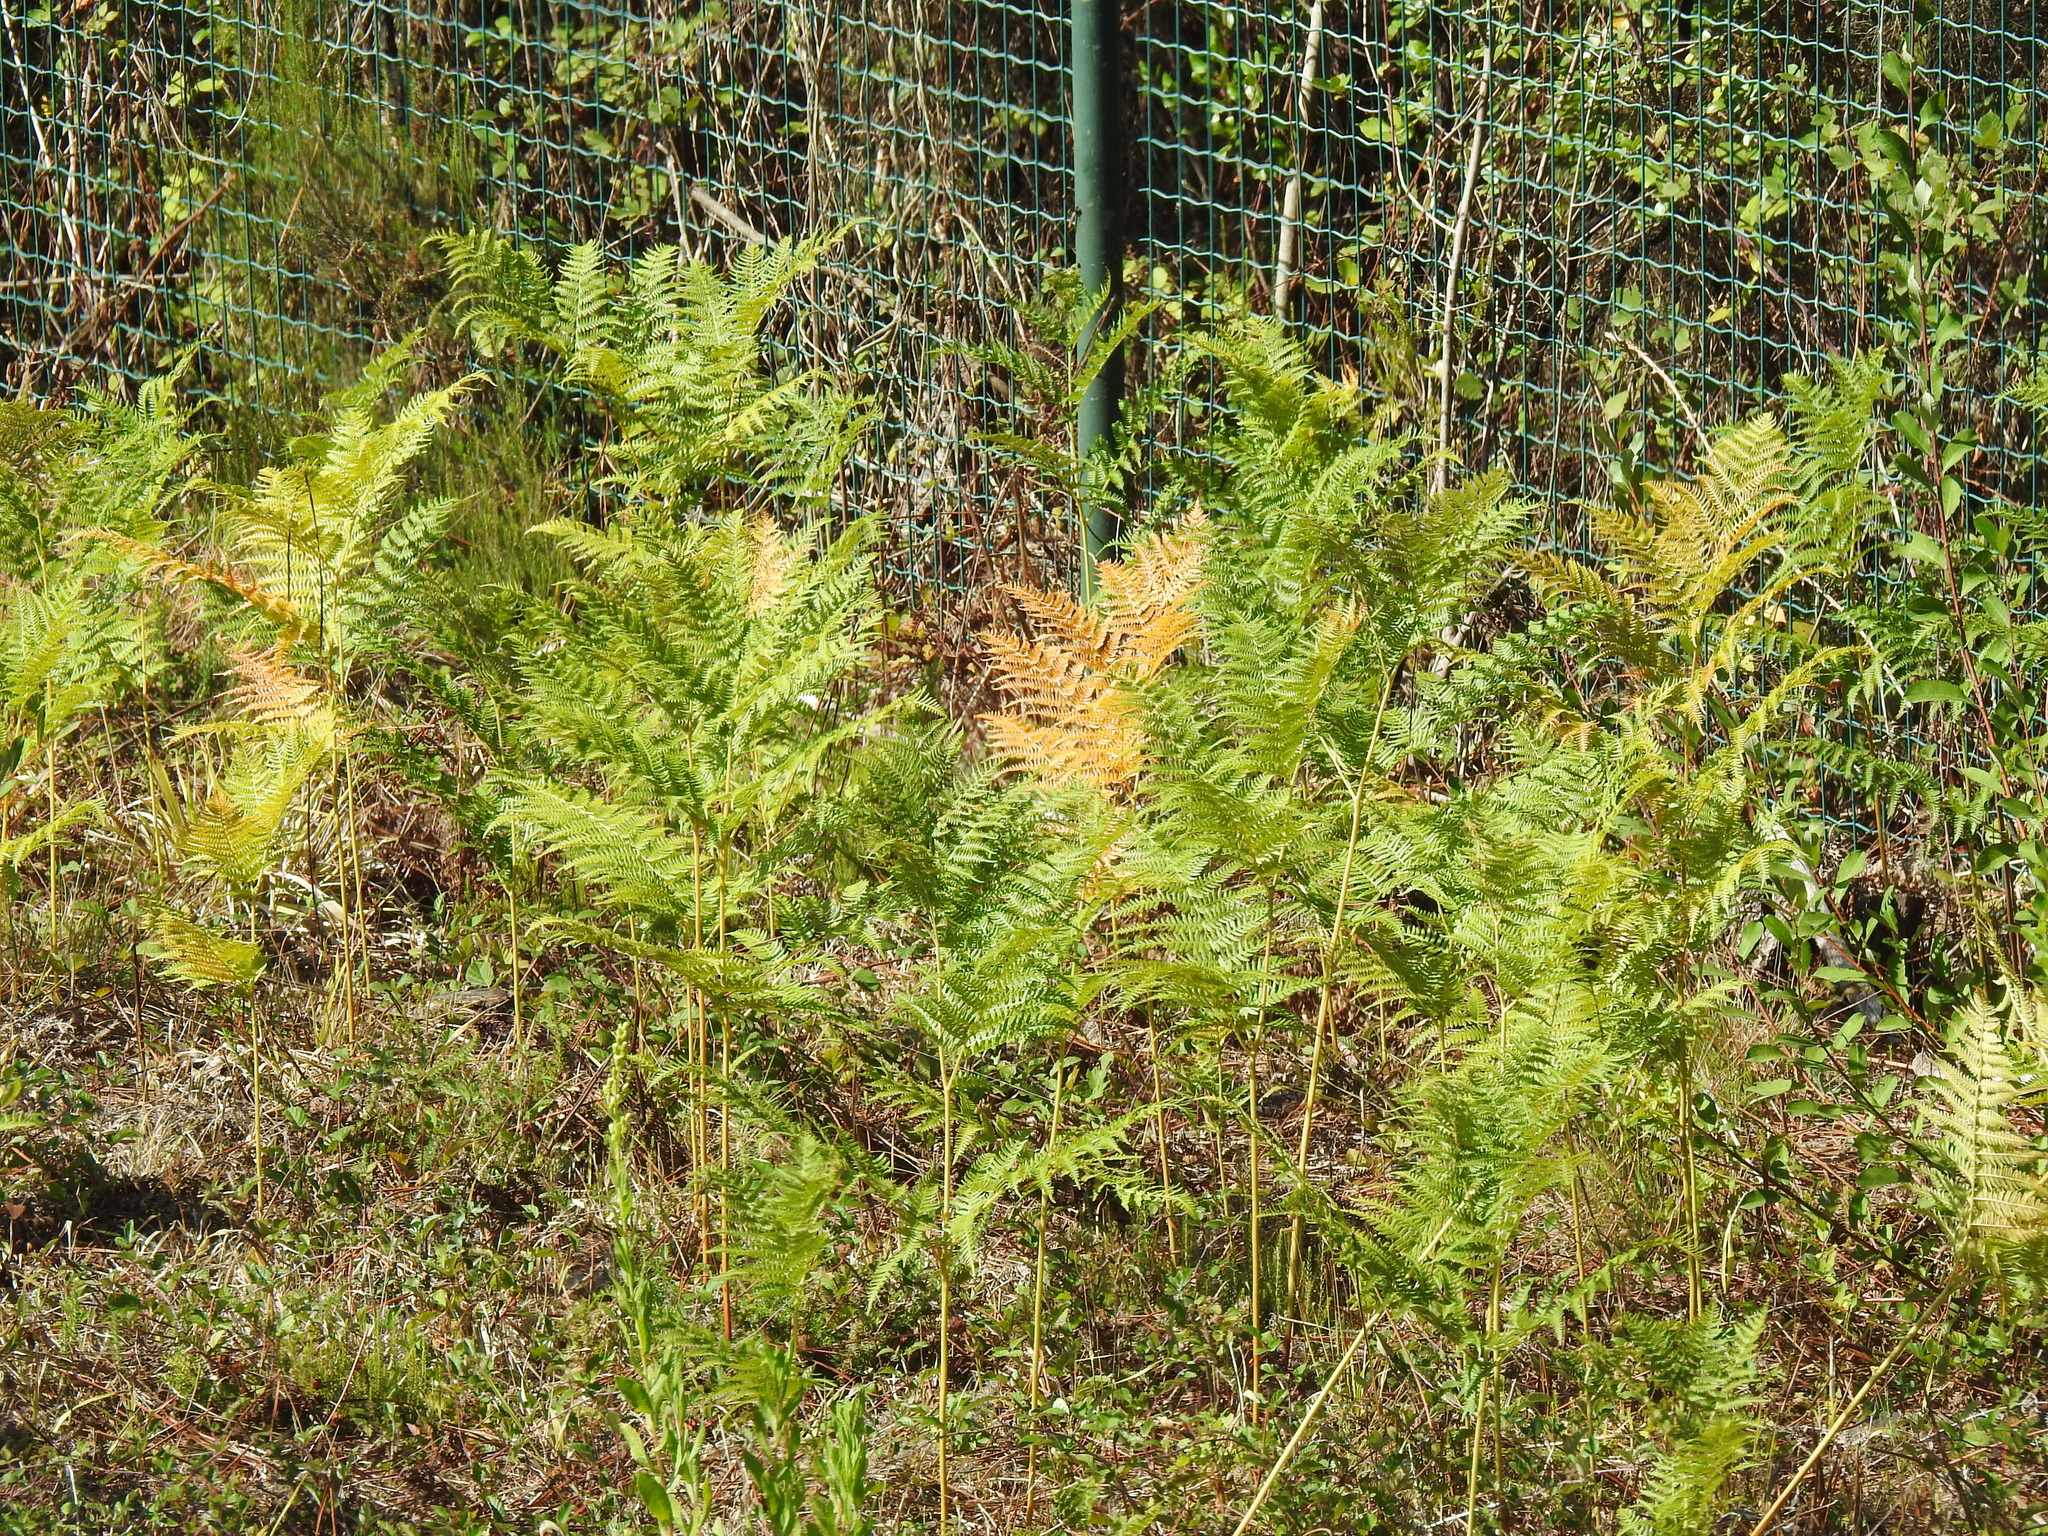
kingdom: Plantae
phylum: Tracheophyta
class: Polypodiopsida
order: Polypodiales
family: Dennstaedtiaceae
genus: Pteridium
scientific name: Pteridium aquilinum
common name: Bracken
